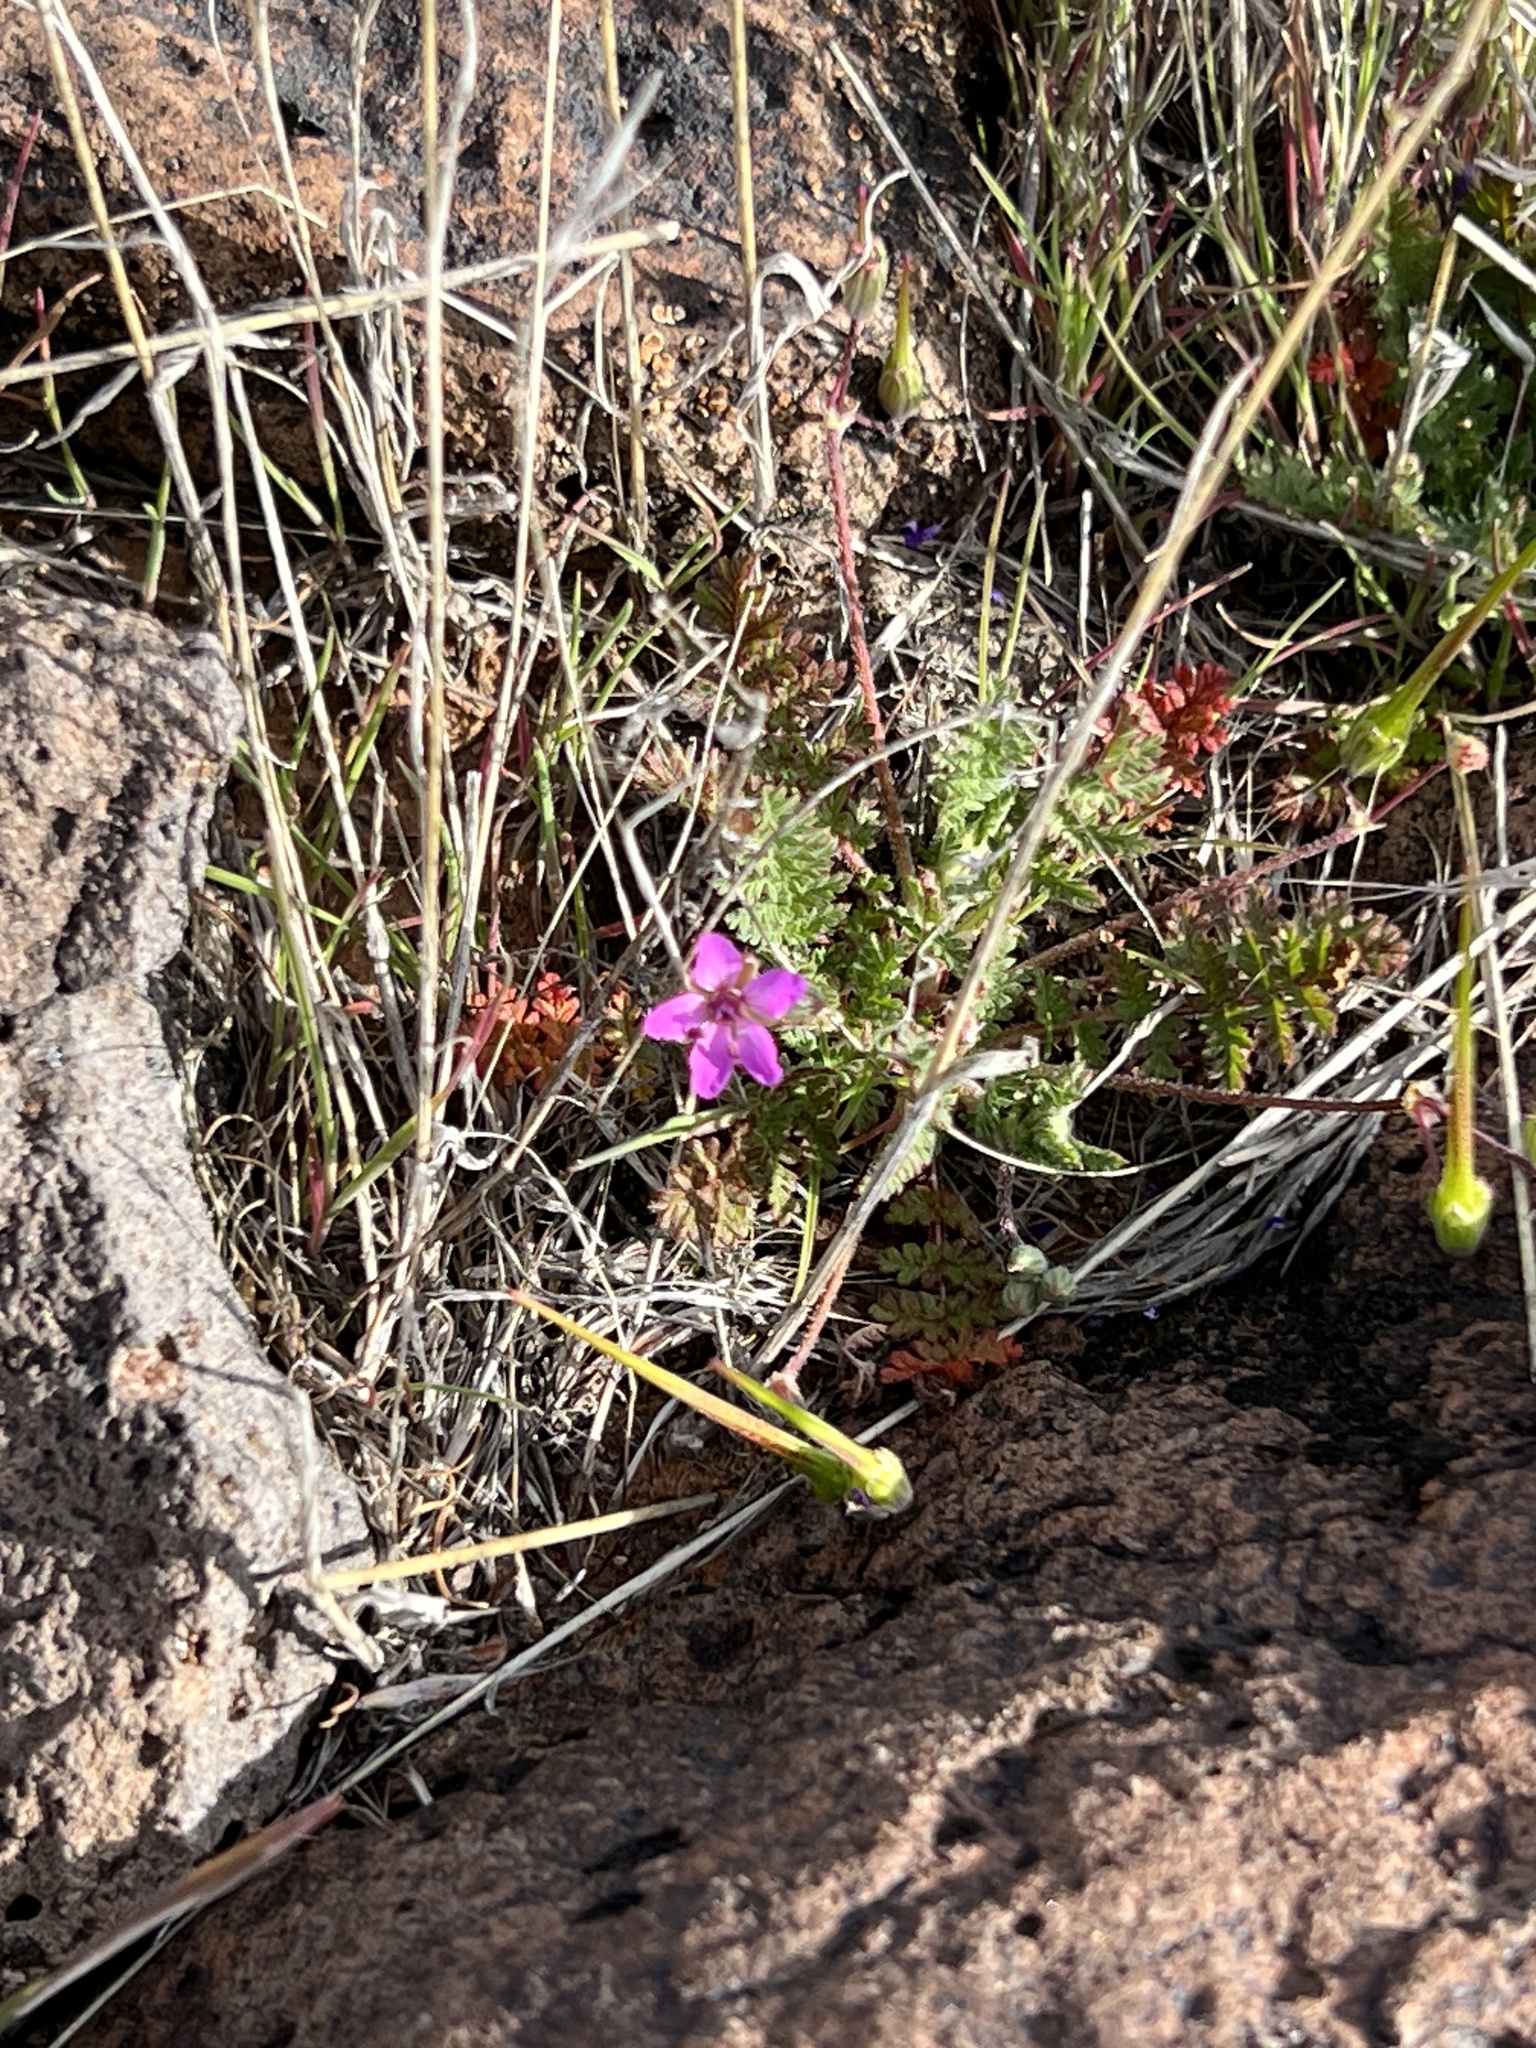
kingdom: Plantae
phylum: Tracheophyta
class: Magnoliopsida
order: Geraniales
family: Geraniaceae
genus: Erodium
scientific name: Erodium cicutarium
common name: Common stork's-bill
